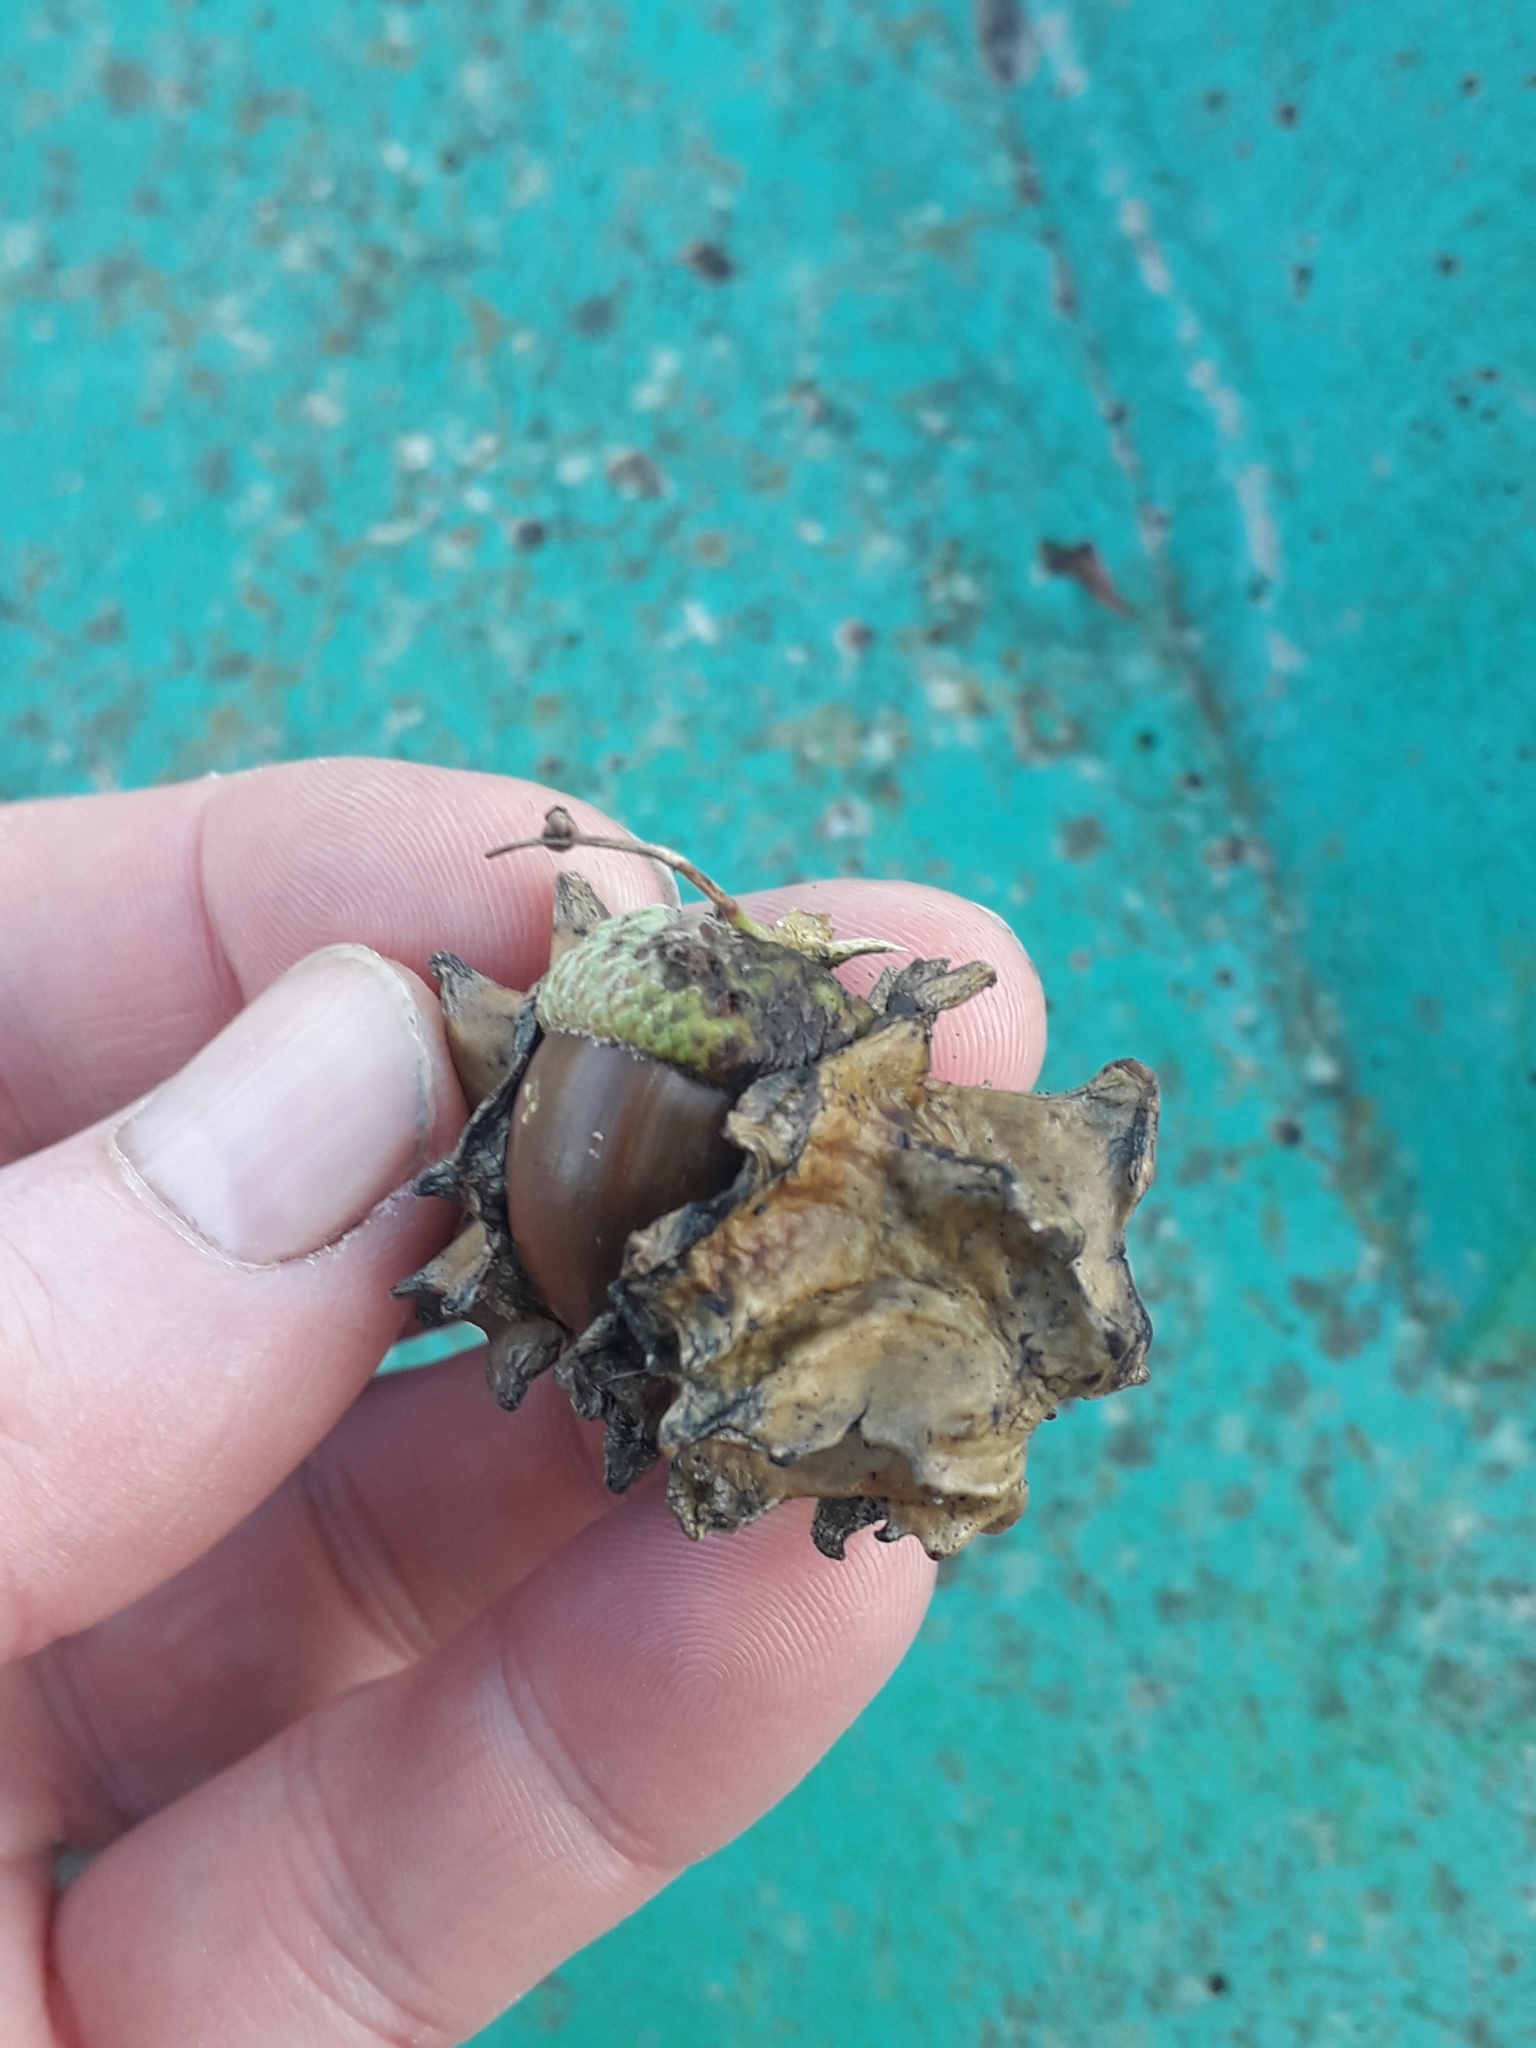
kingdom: Animalia
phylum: Arthropoda
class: Insecta
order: Hymenoptera
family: Cynipidae
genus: Andricus
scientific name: Andricus quercuscalicis
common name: Knopper gall
